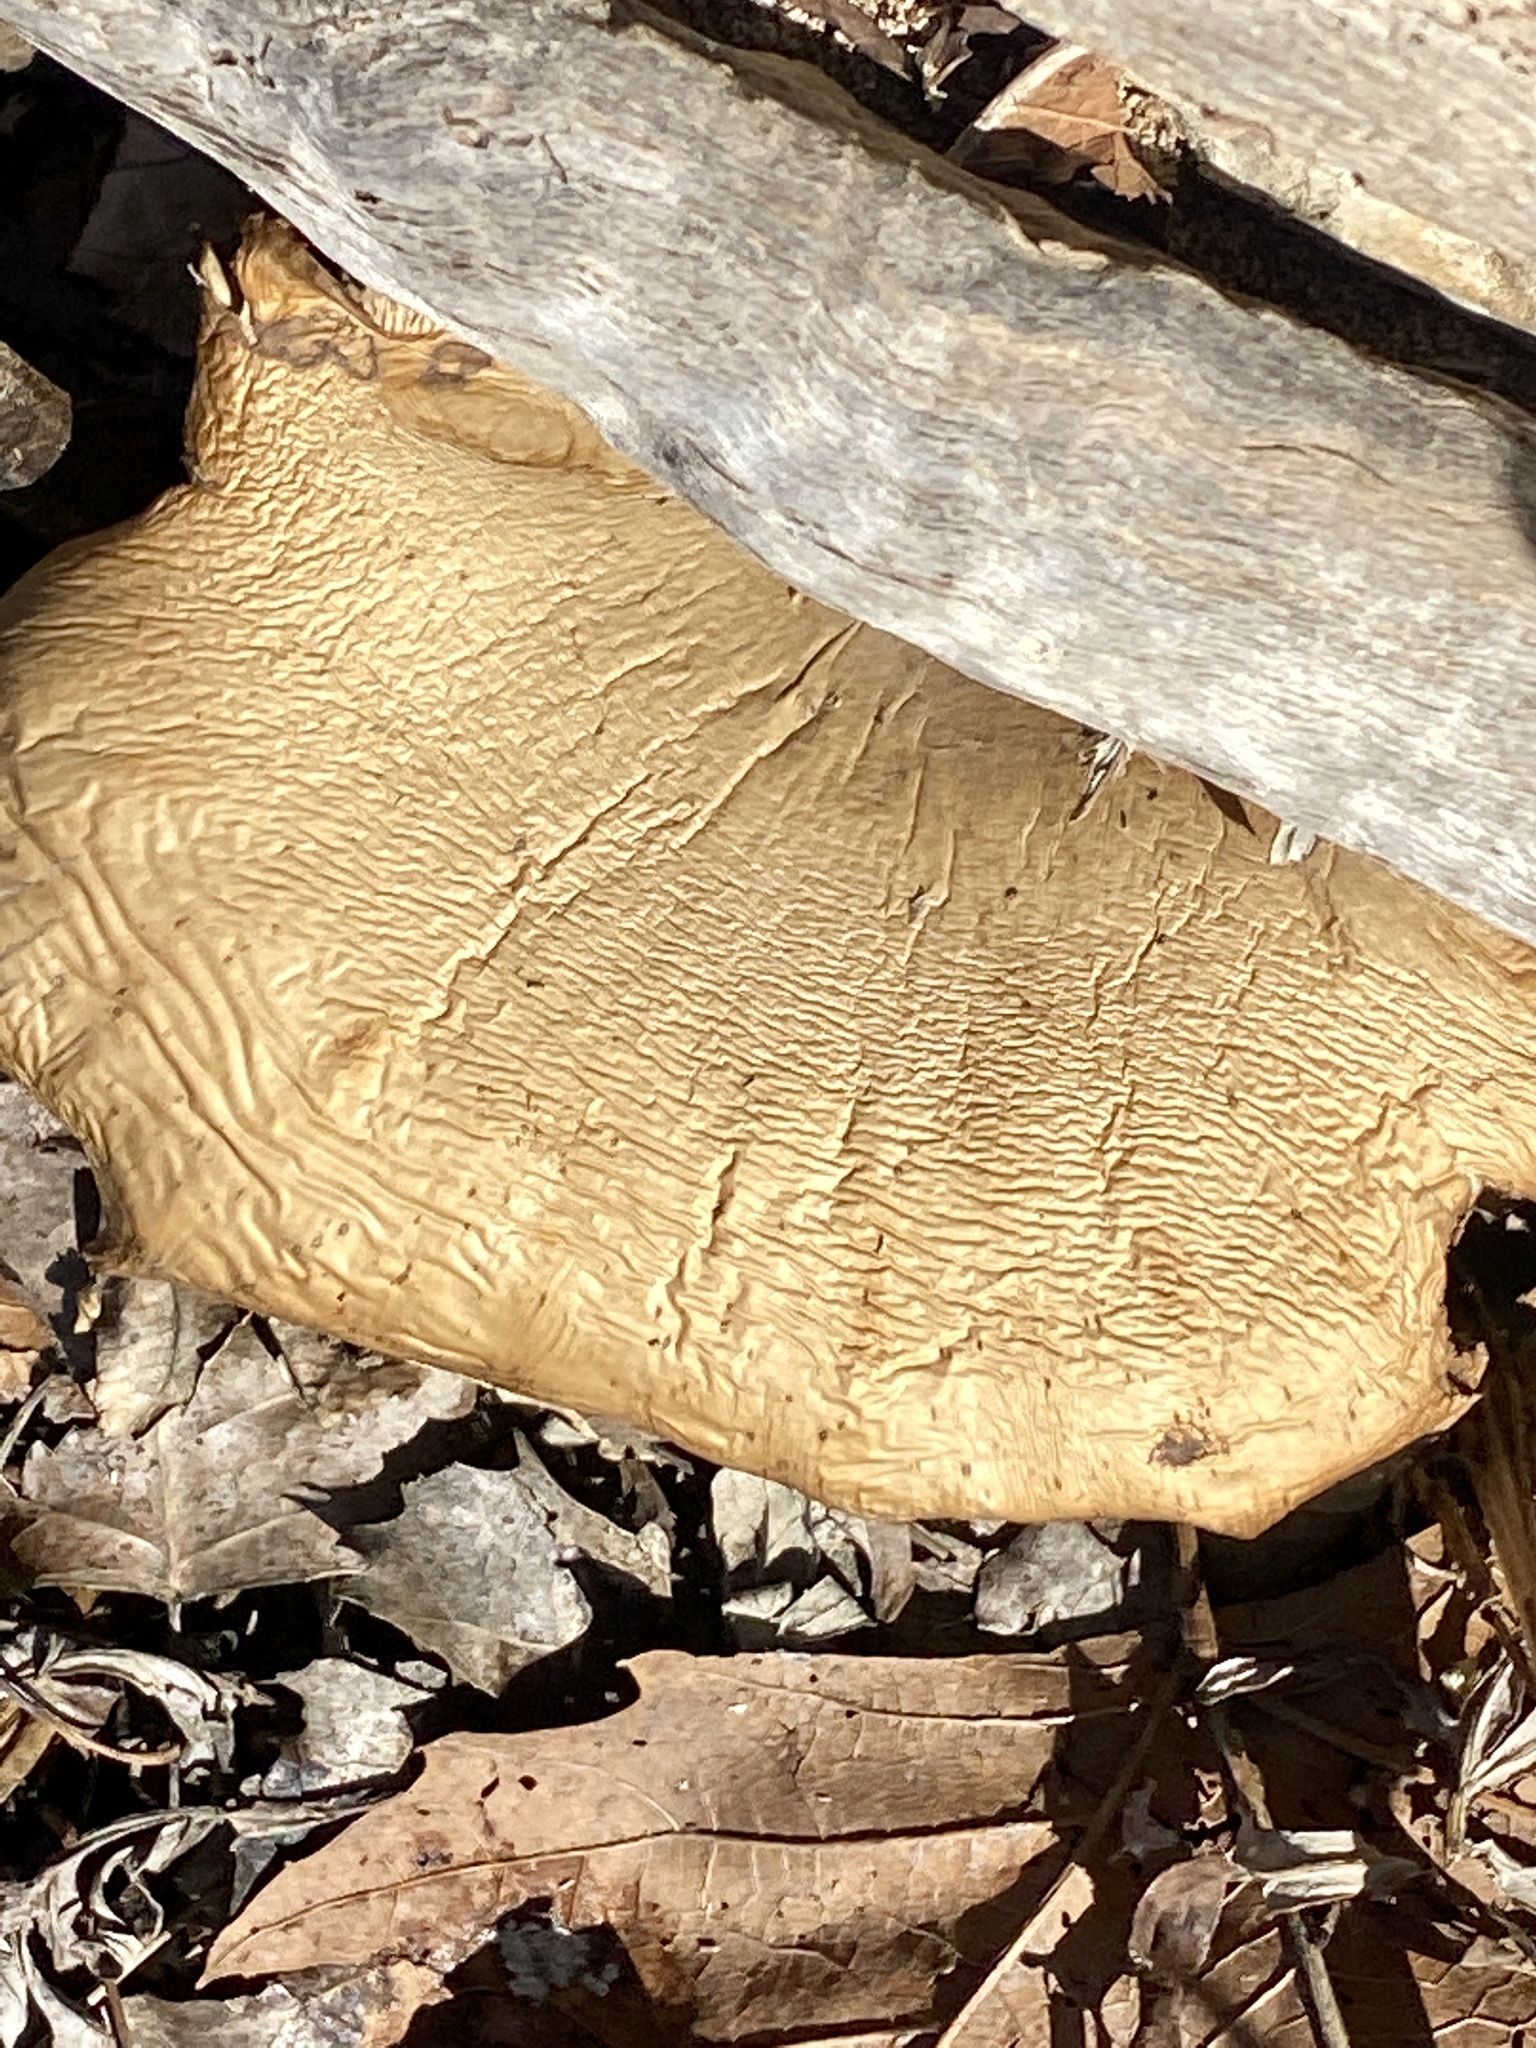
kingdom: Fungi
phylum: Basidiomycota
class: Agaricomycetes
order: Agaricales
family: Pleurotaceae
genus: Pleurotus
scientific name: Pleurotus ostreatus
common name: Oyster mushroom
